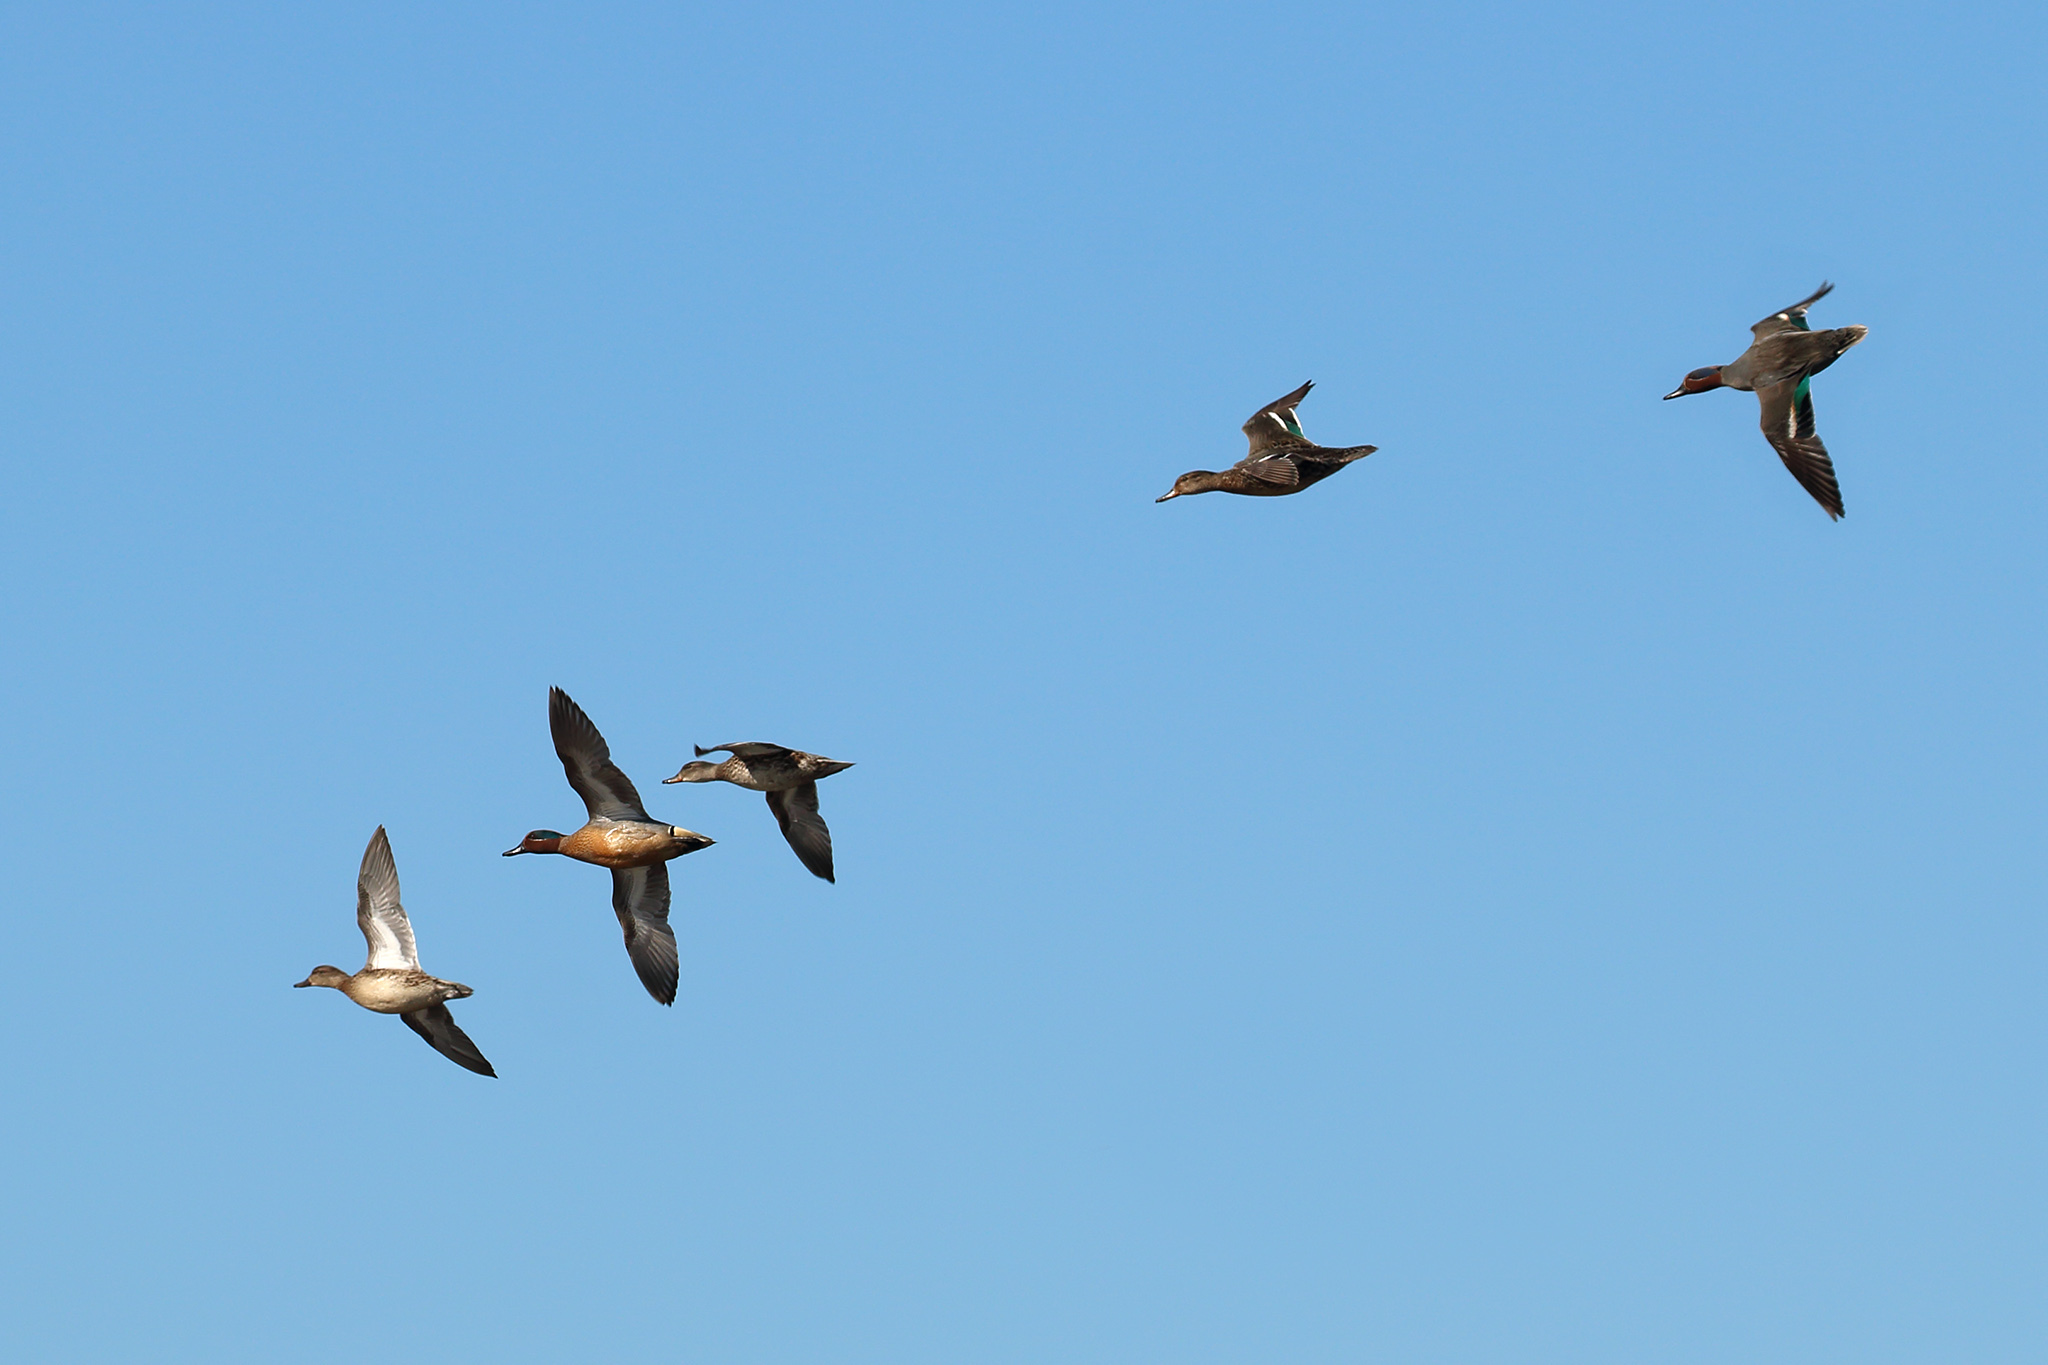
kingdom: Animalia
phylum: Chordata
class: Aves
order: Anseriformes
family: Anatidae
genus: Anas
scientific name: Anas crecca
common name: Eurasian teal
